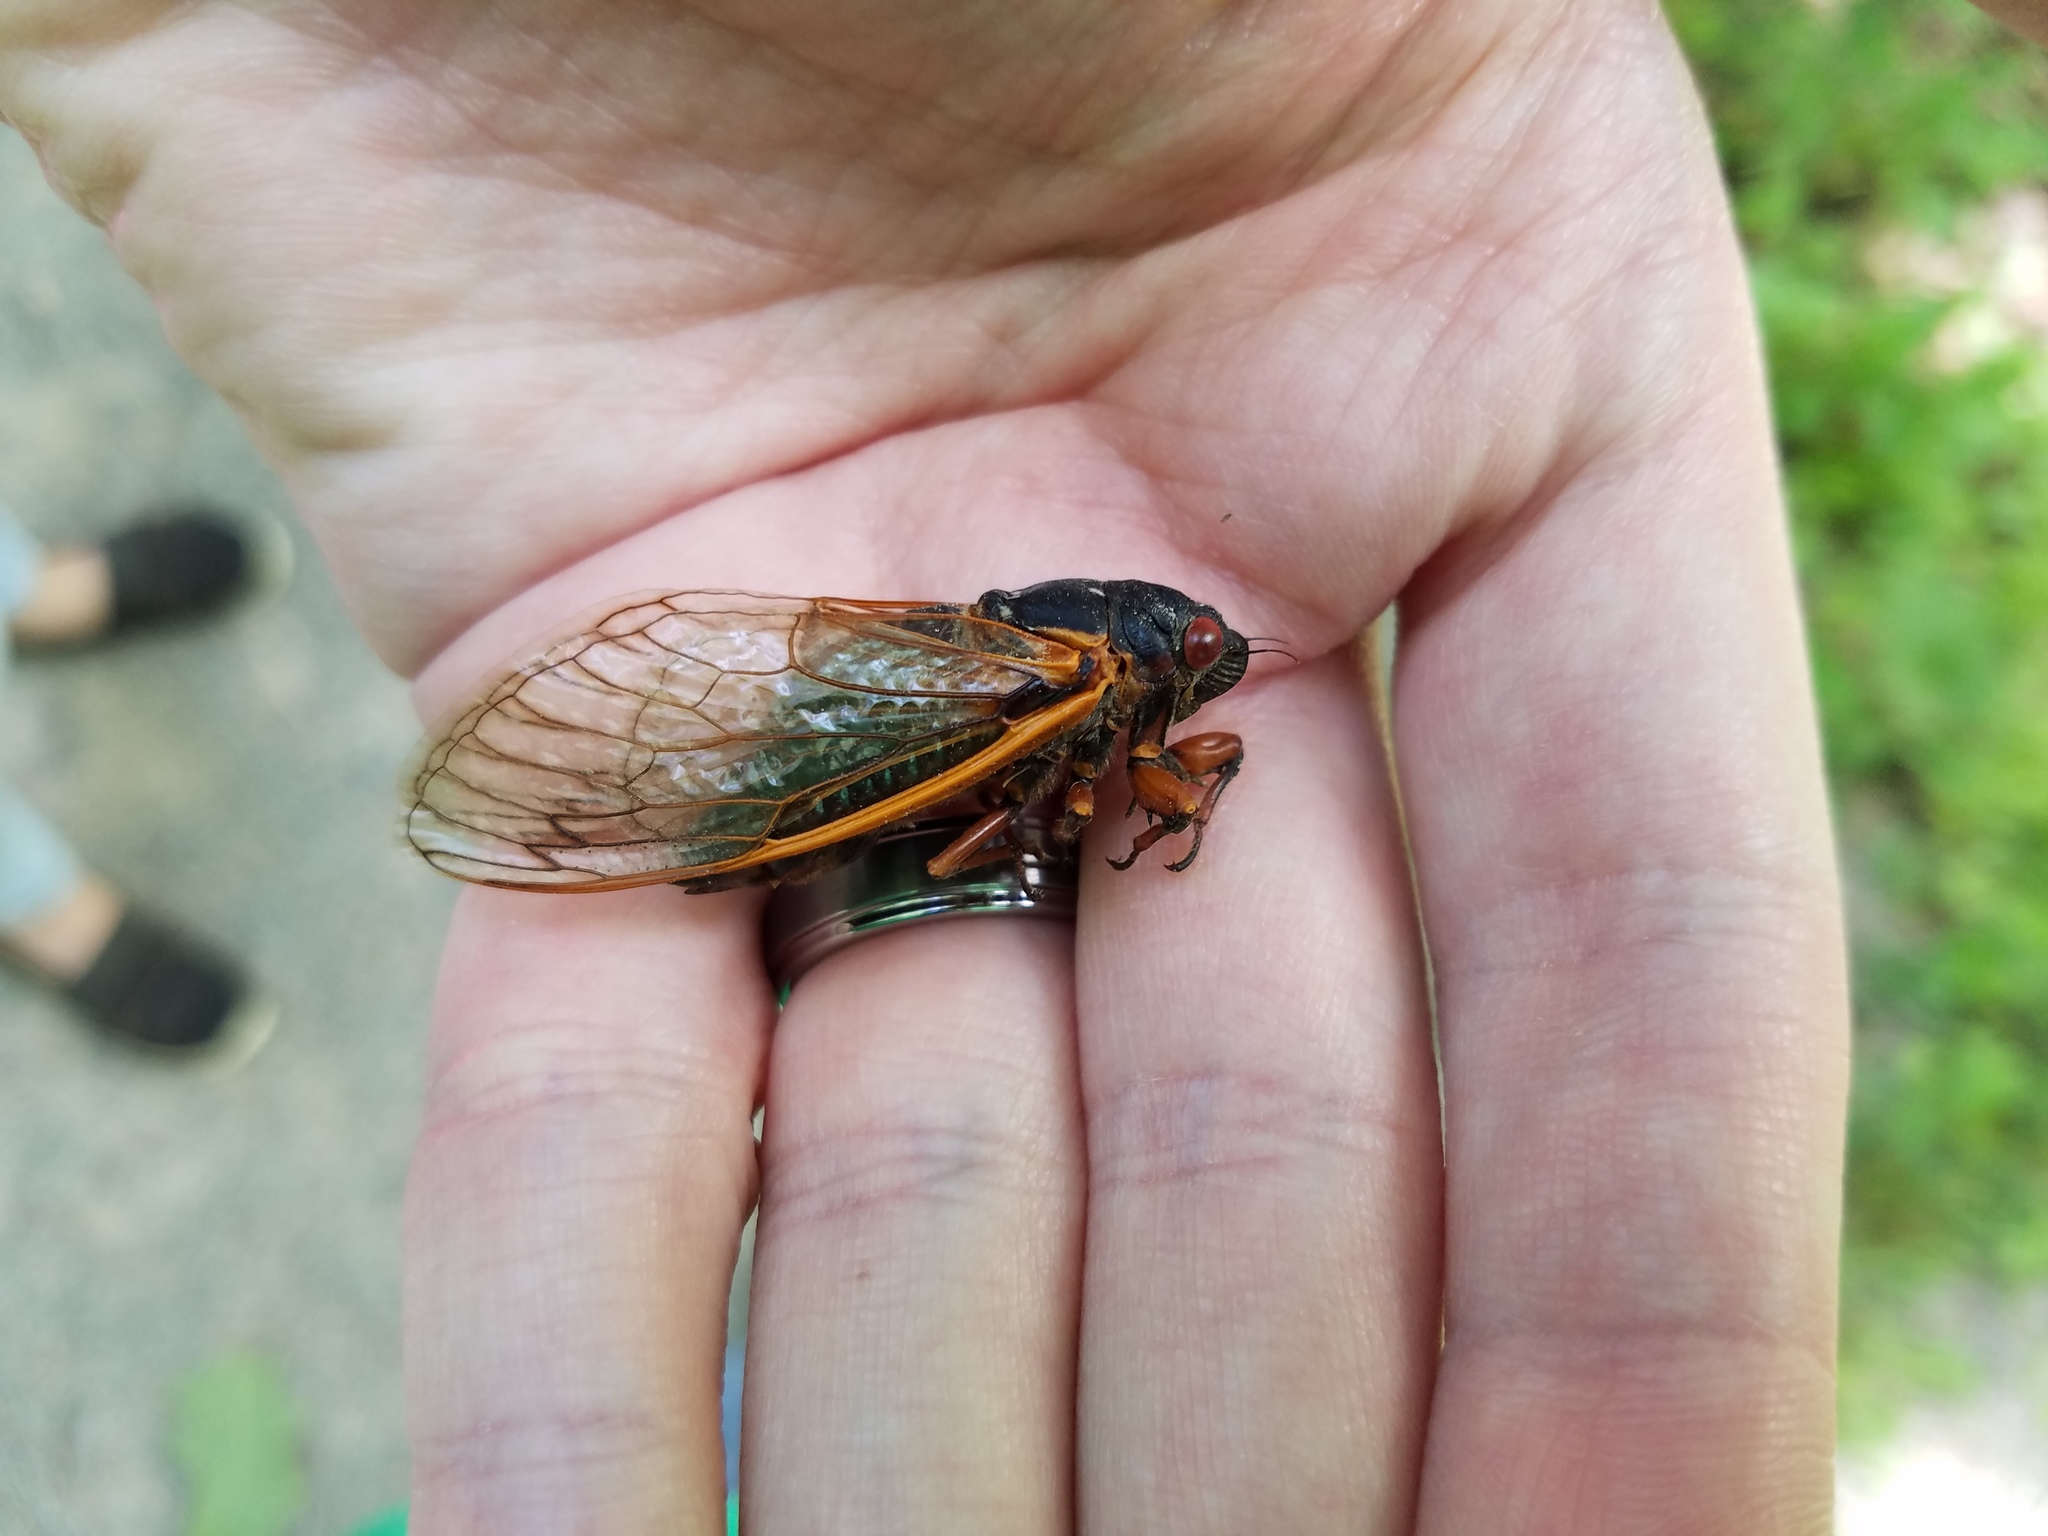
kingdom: Animalia
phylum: Arthropoda
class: Insecta
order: Hemiptera
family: Cicadidae
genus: Magicicada
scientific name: Magicicada septendecim
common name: Periodical cicada
